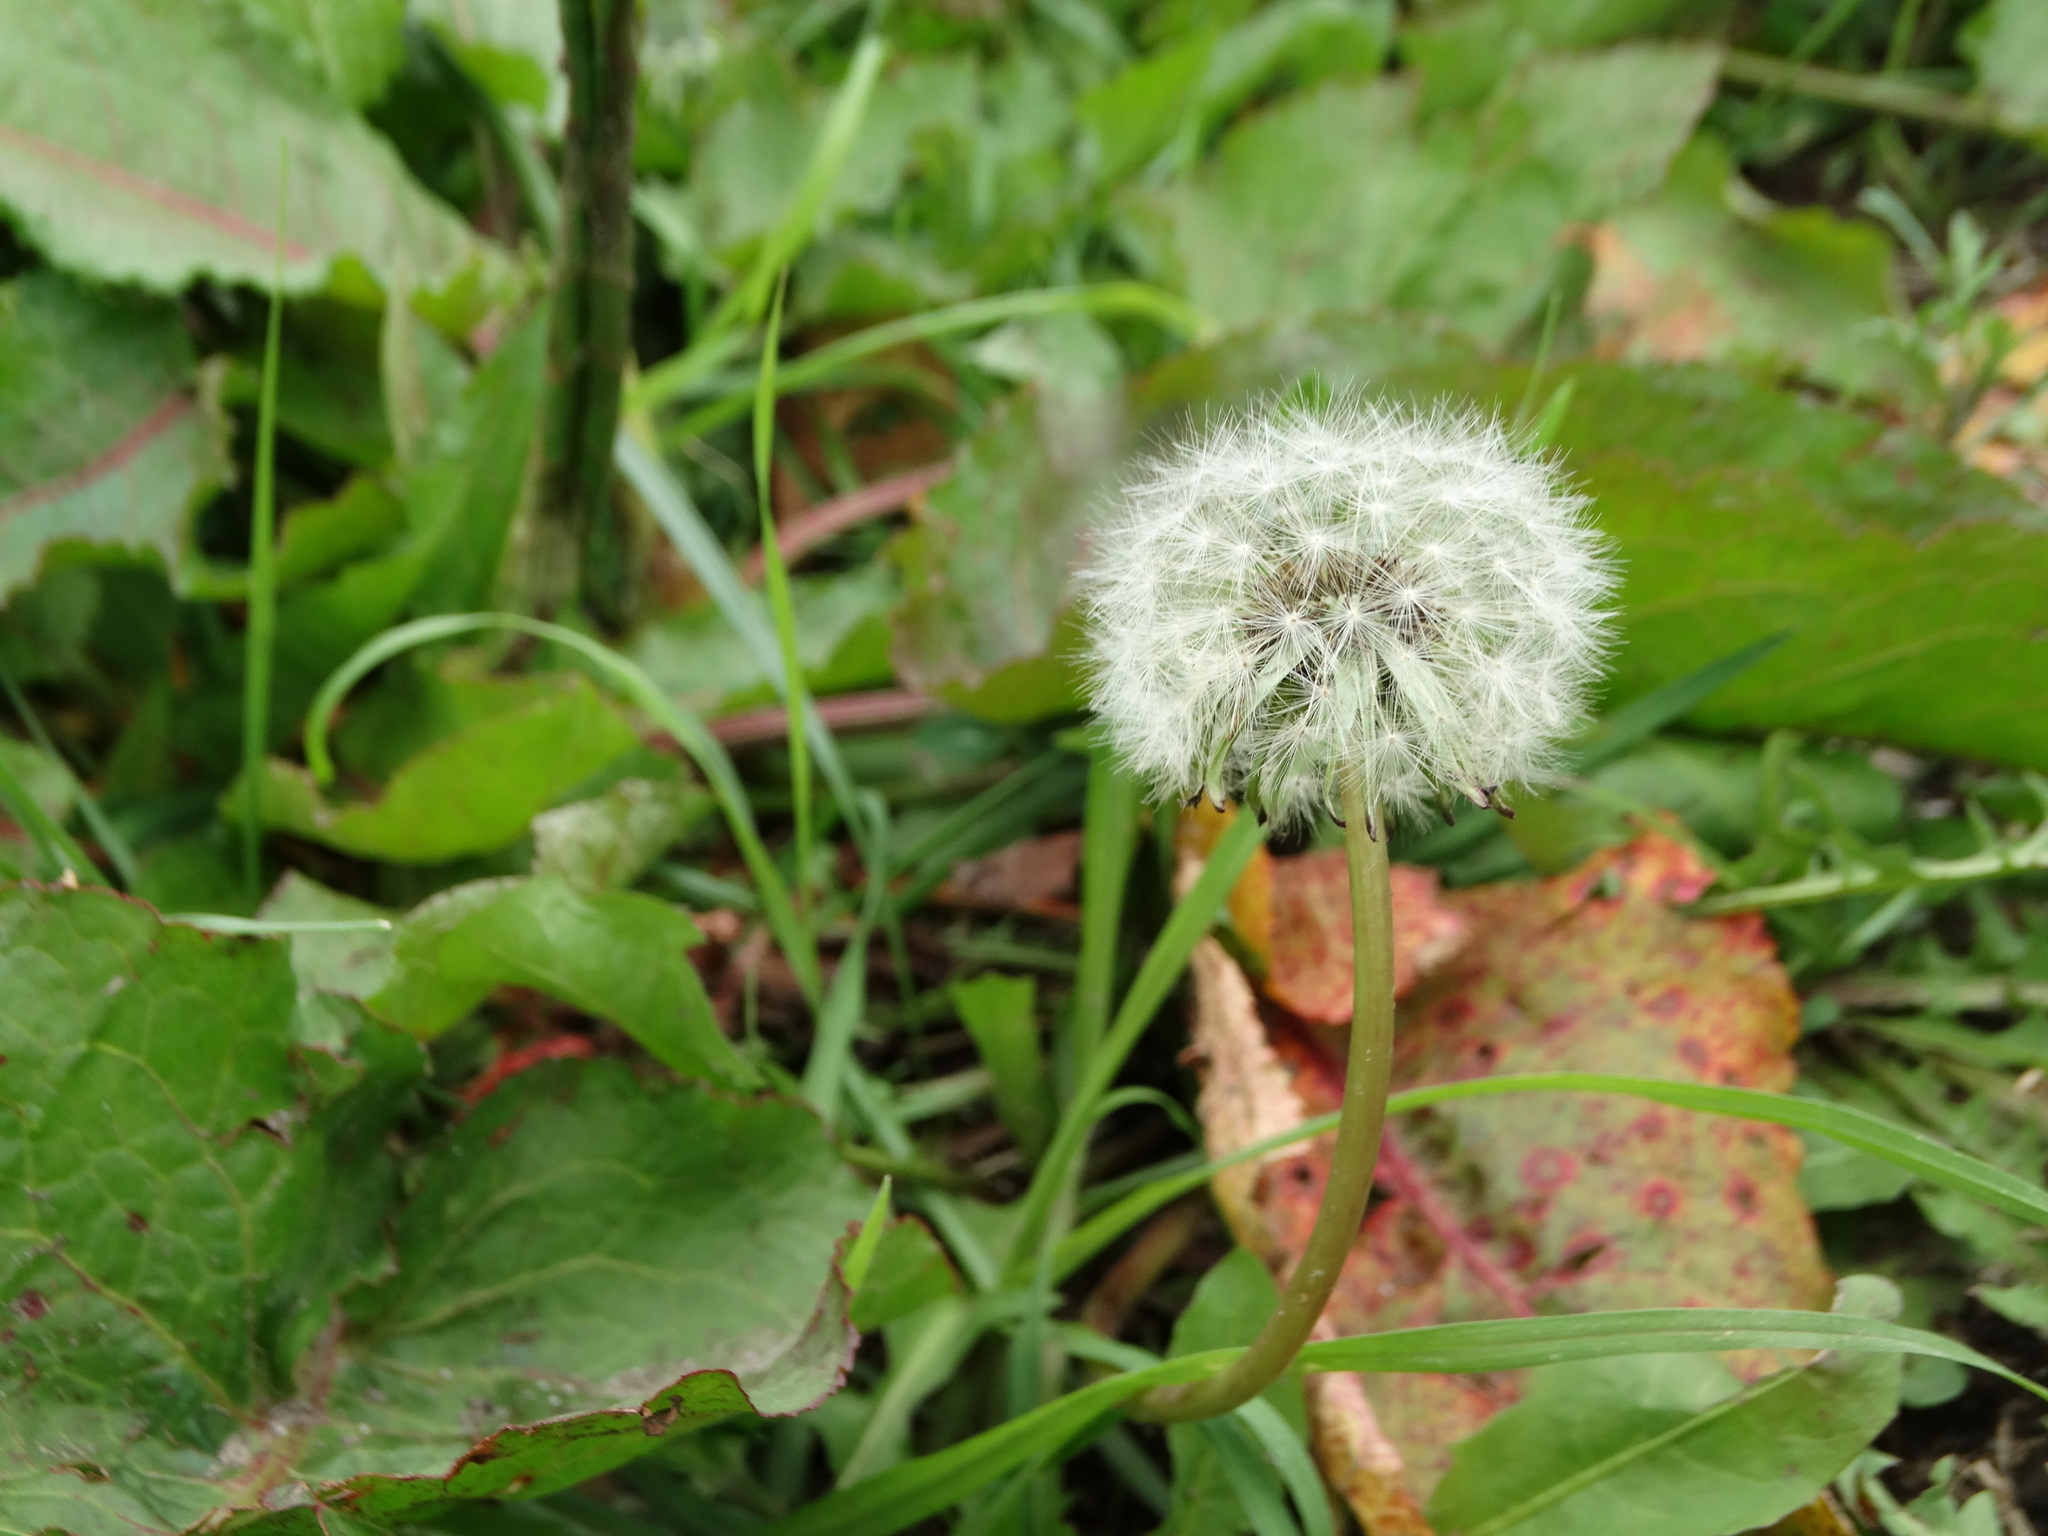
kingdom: Plantae
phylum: Tracheophyta
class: Magnoliopsida
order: Asterales
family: Asteraceae
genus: Taraxacum
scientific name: Taraxacum officinale
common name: Common dandelion
